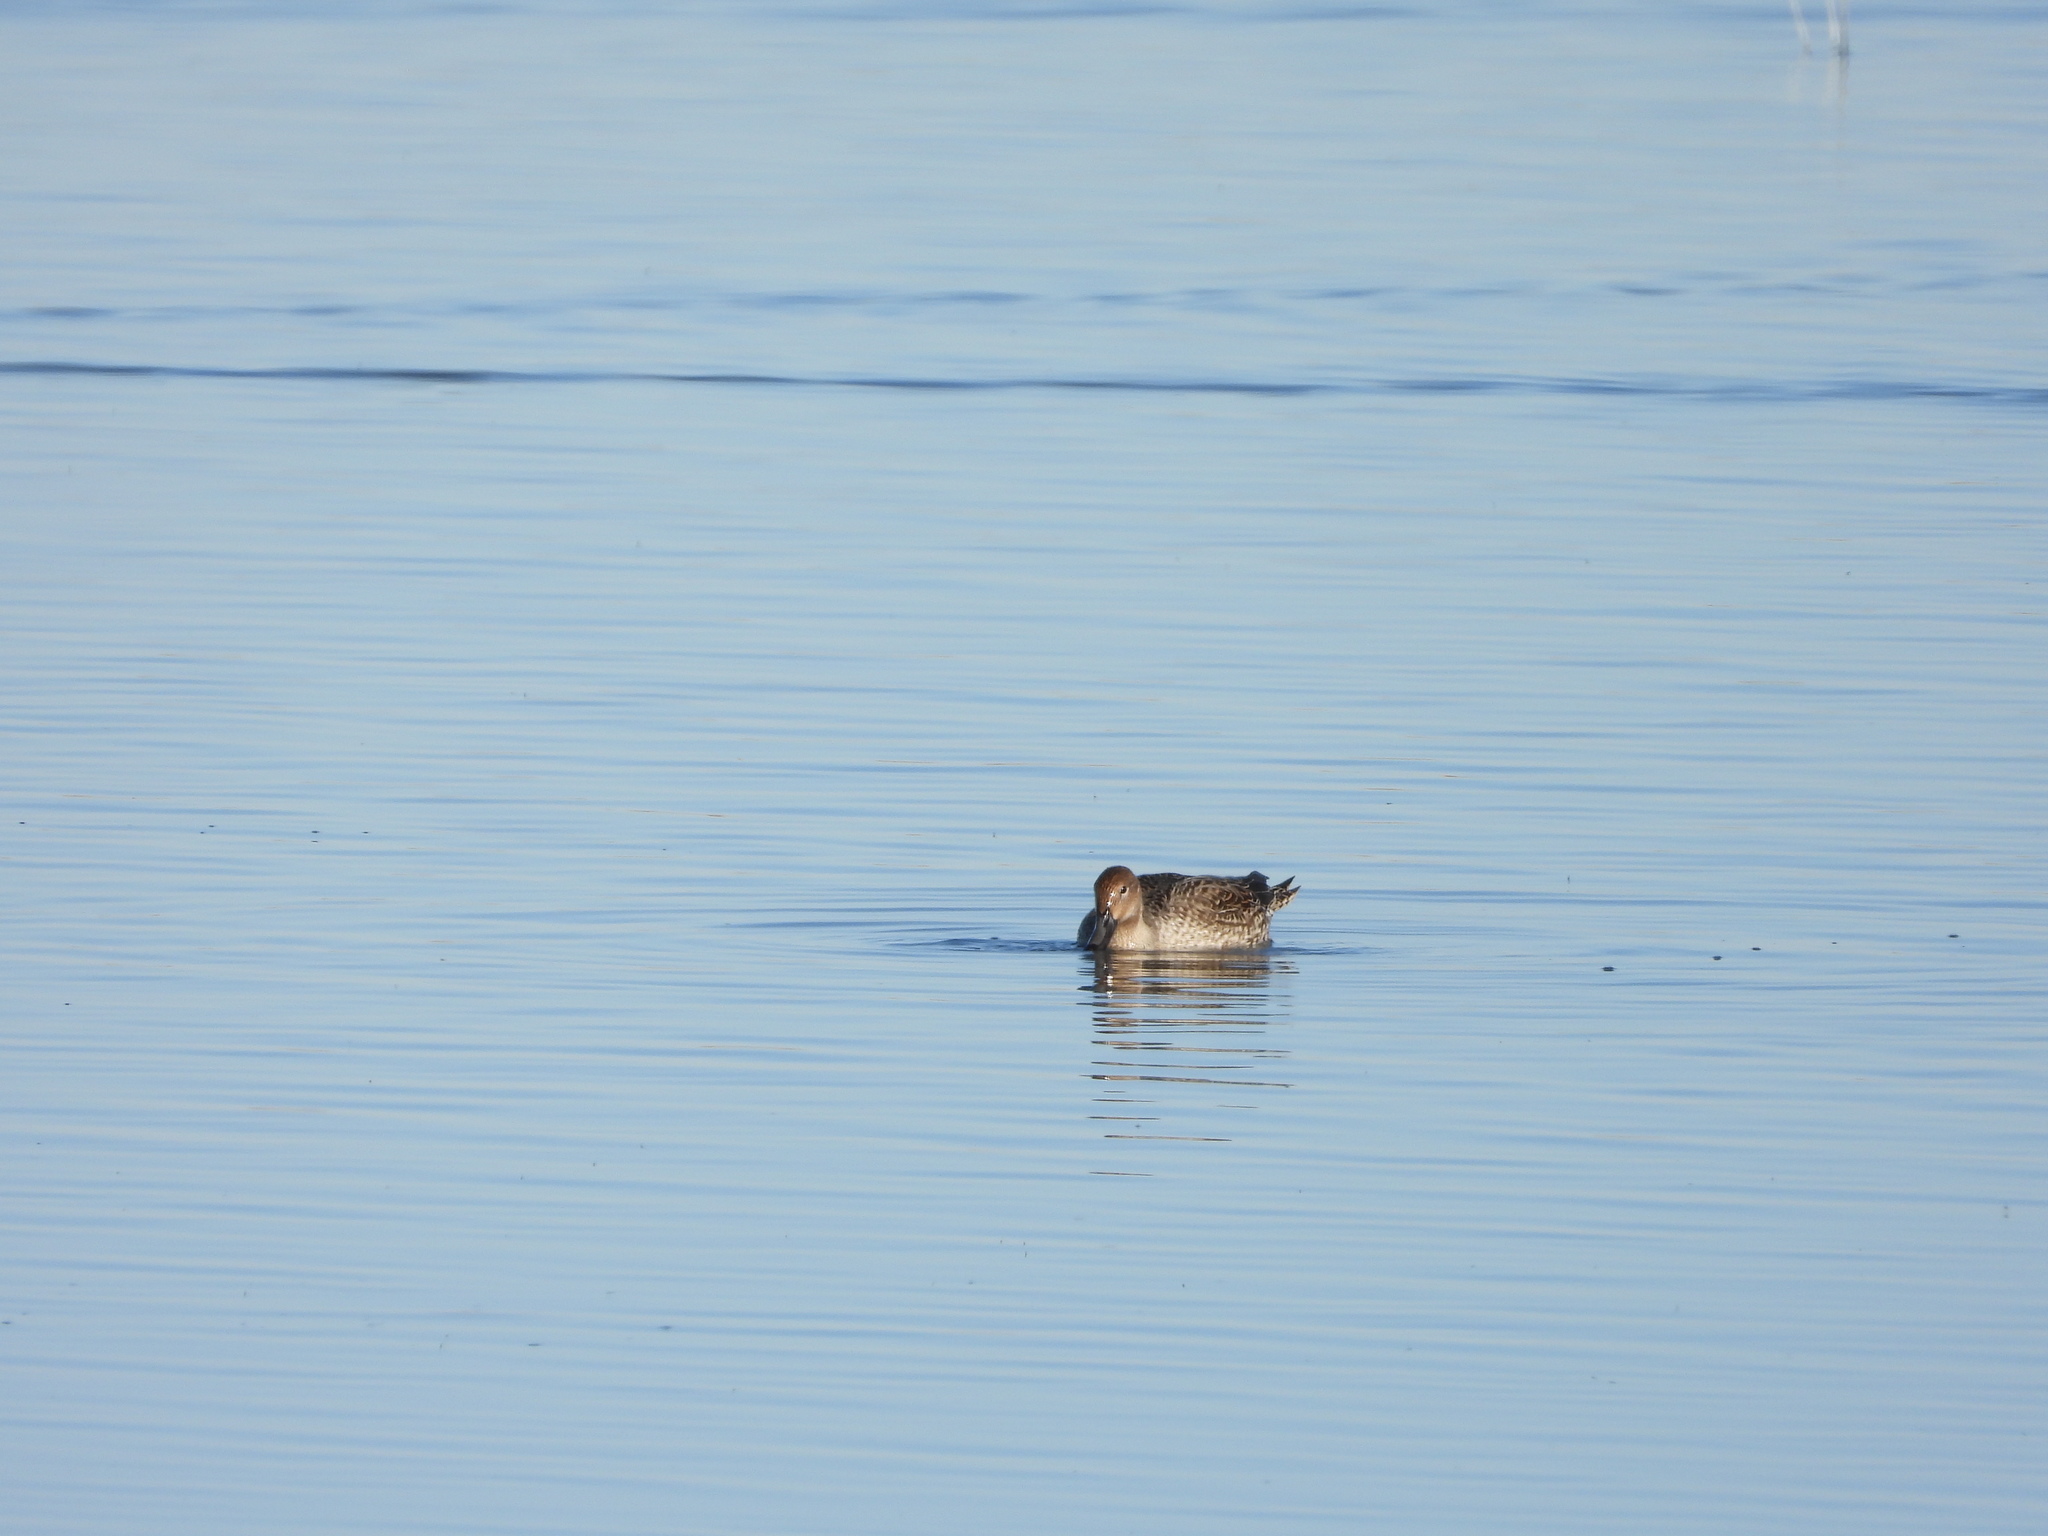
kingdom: Animalia
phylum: Chordata
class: Aves
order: Anseriformes
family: Anatidae
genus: Anas
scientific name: Anas acuta
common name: Northern pintail
